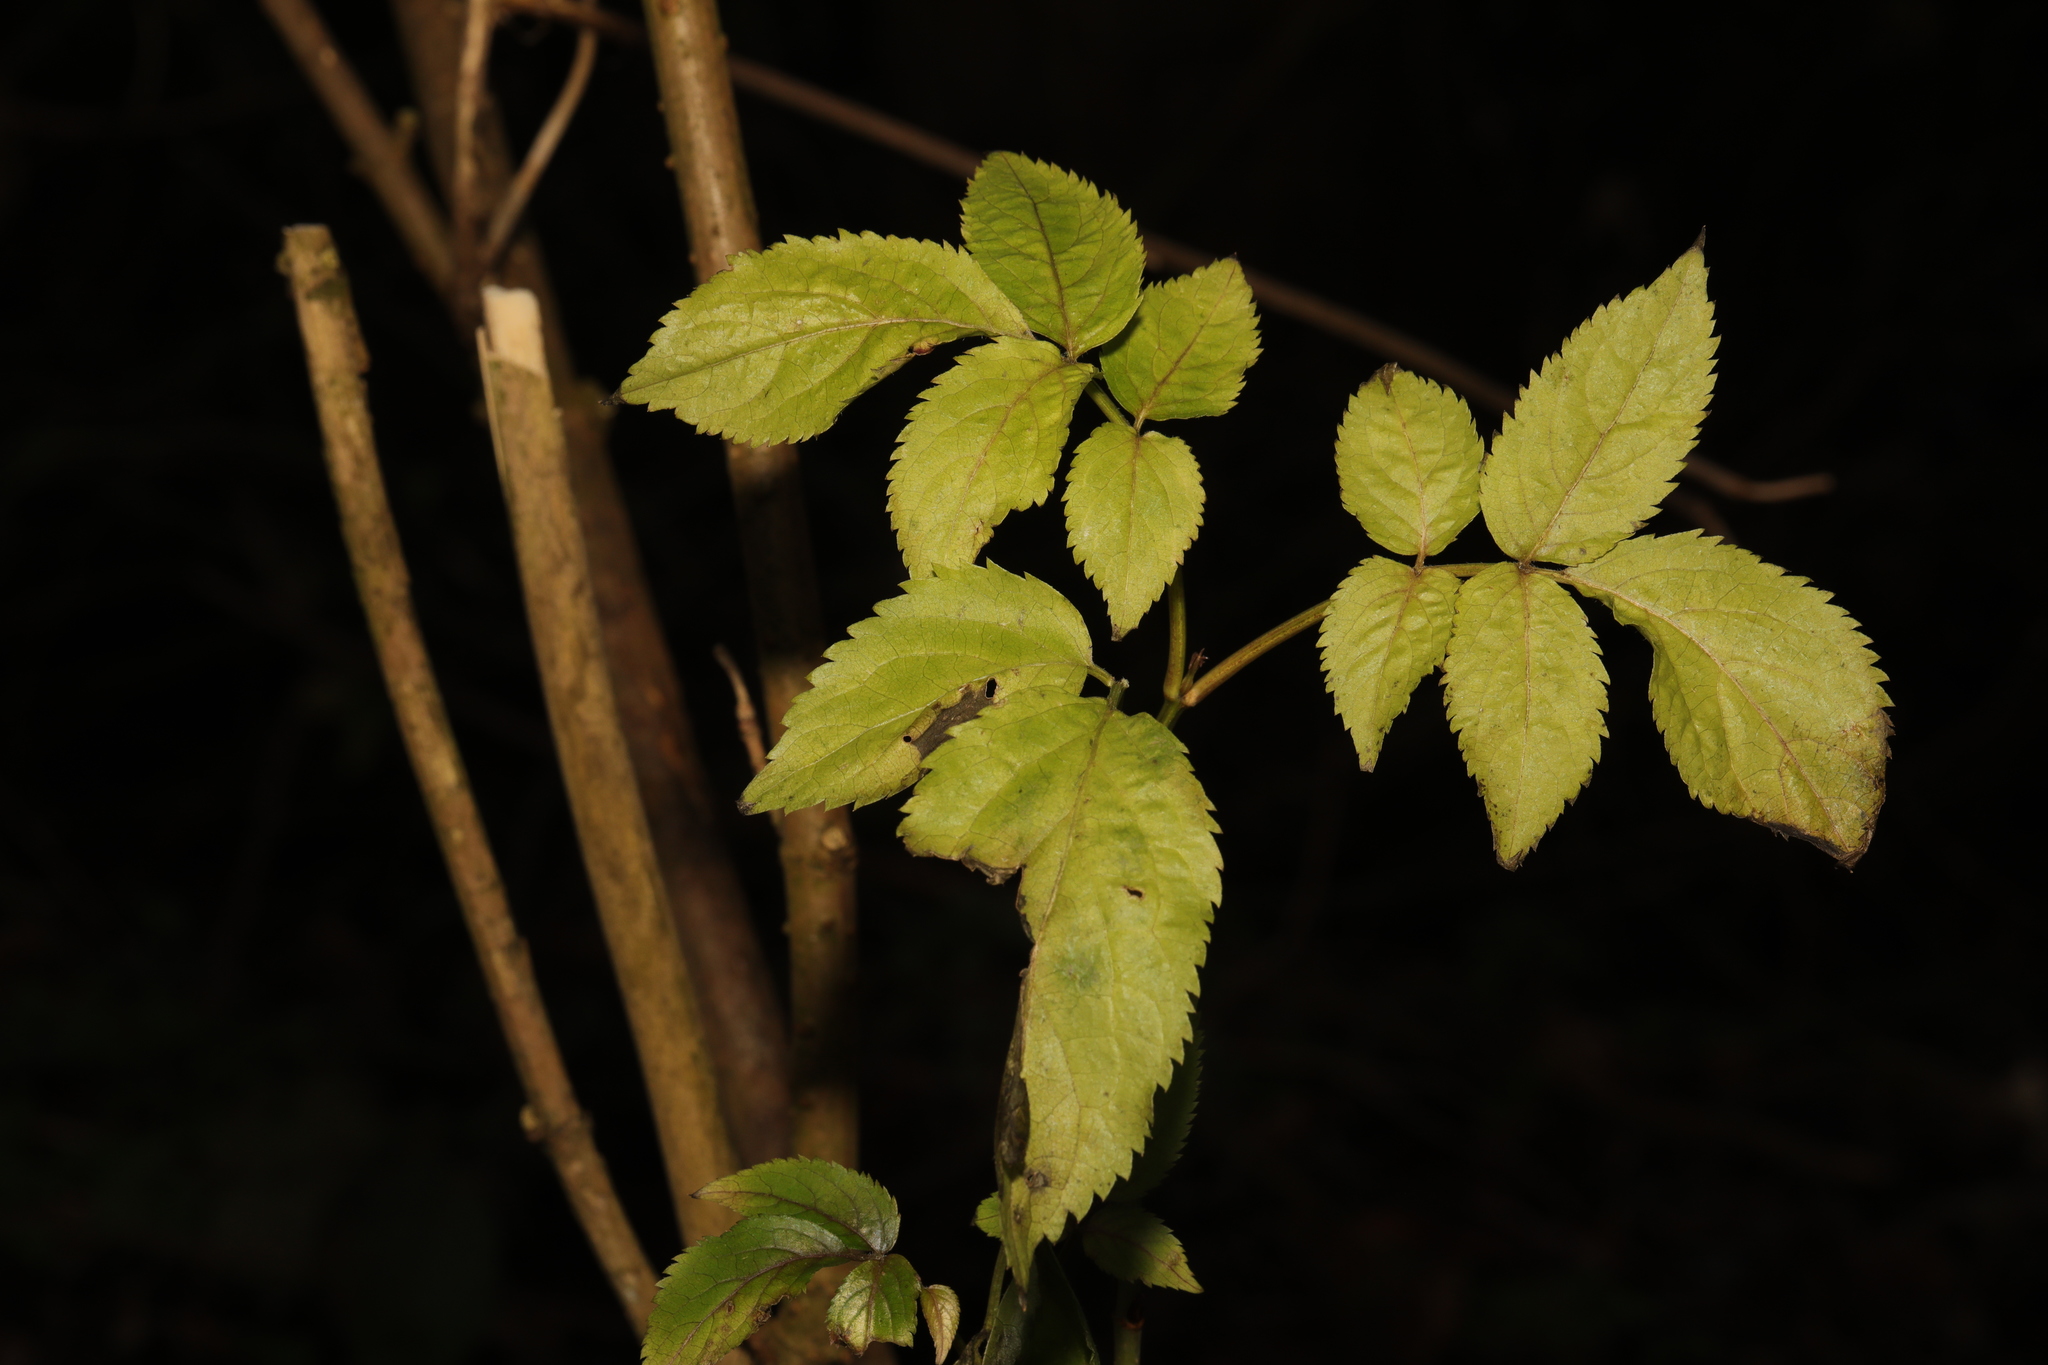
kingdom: Plantae
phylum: Tracheophyta
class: Magnoliopsida
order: Dipsacales
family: Viburnaceae
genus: Sambucus
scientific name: Sambucus nigra
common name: Elder
